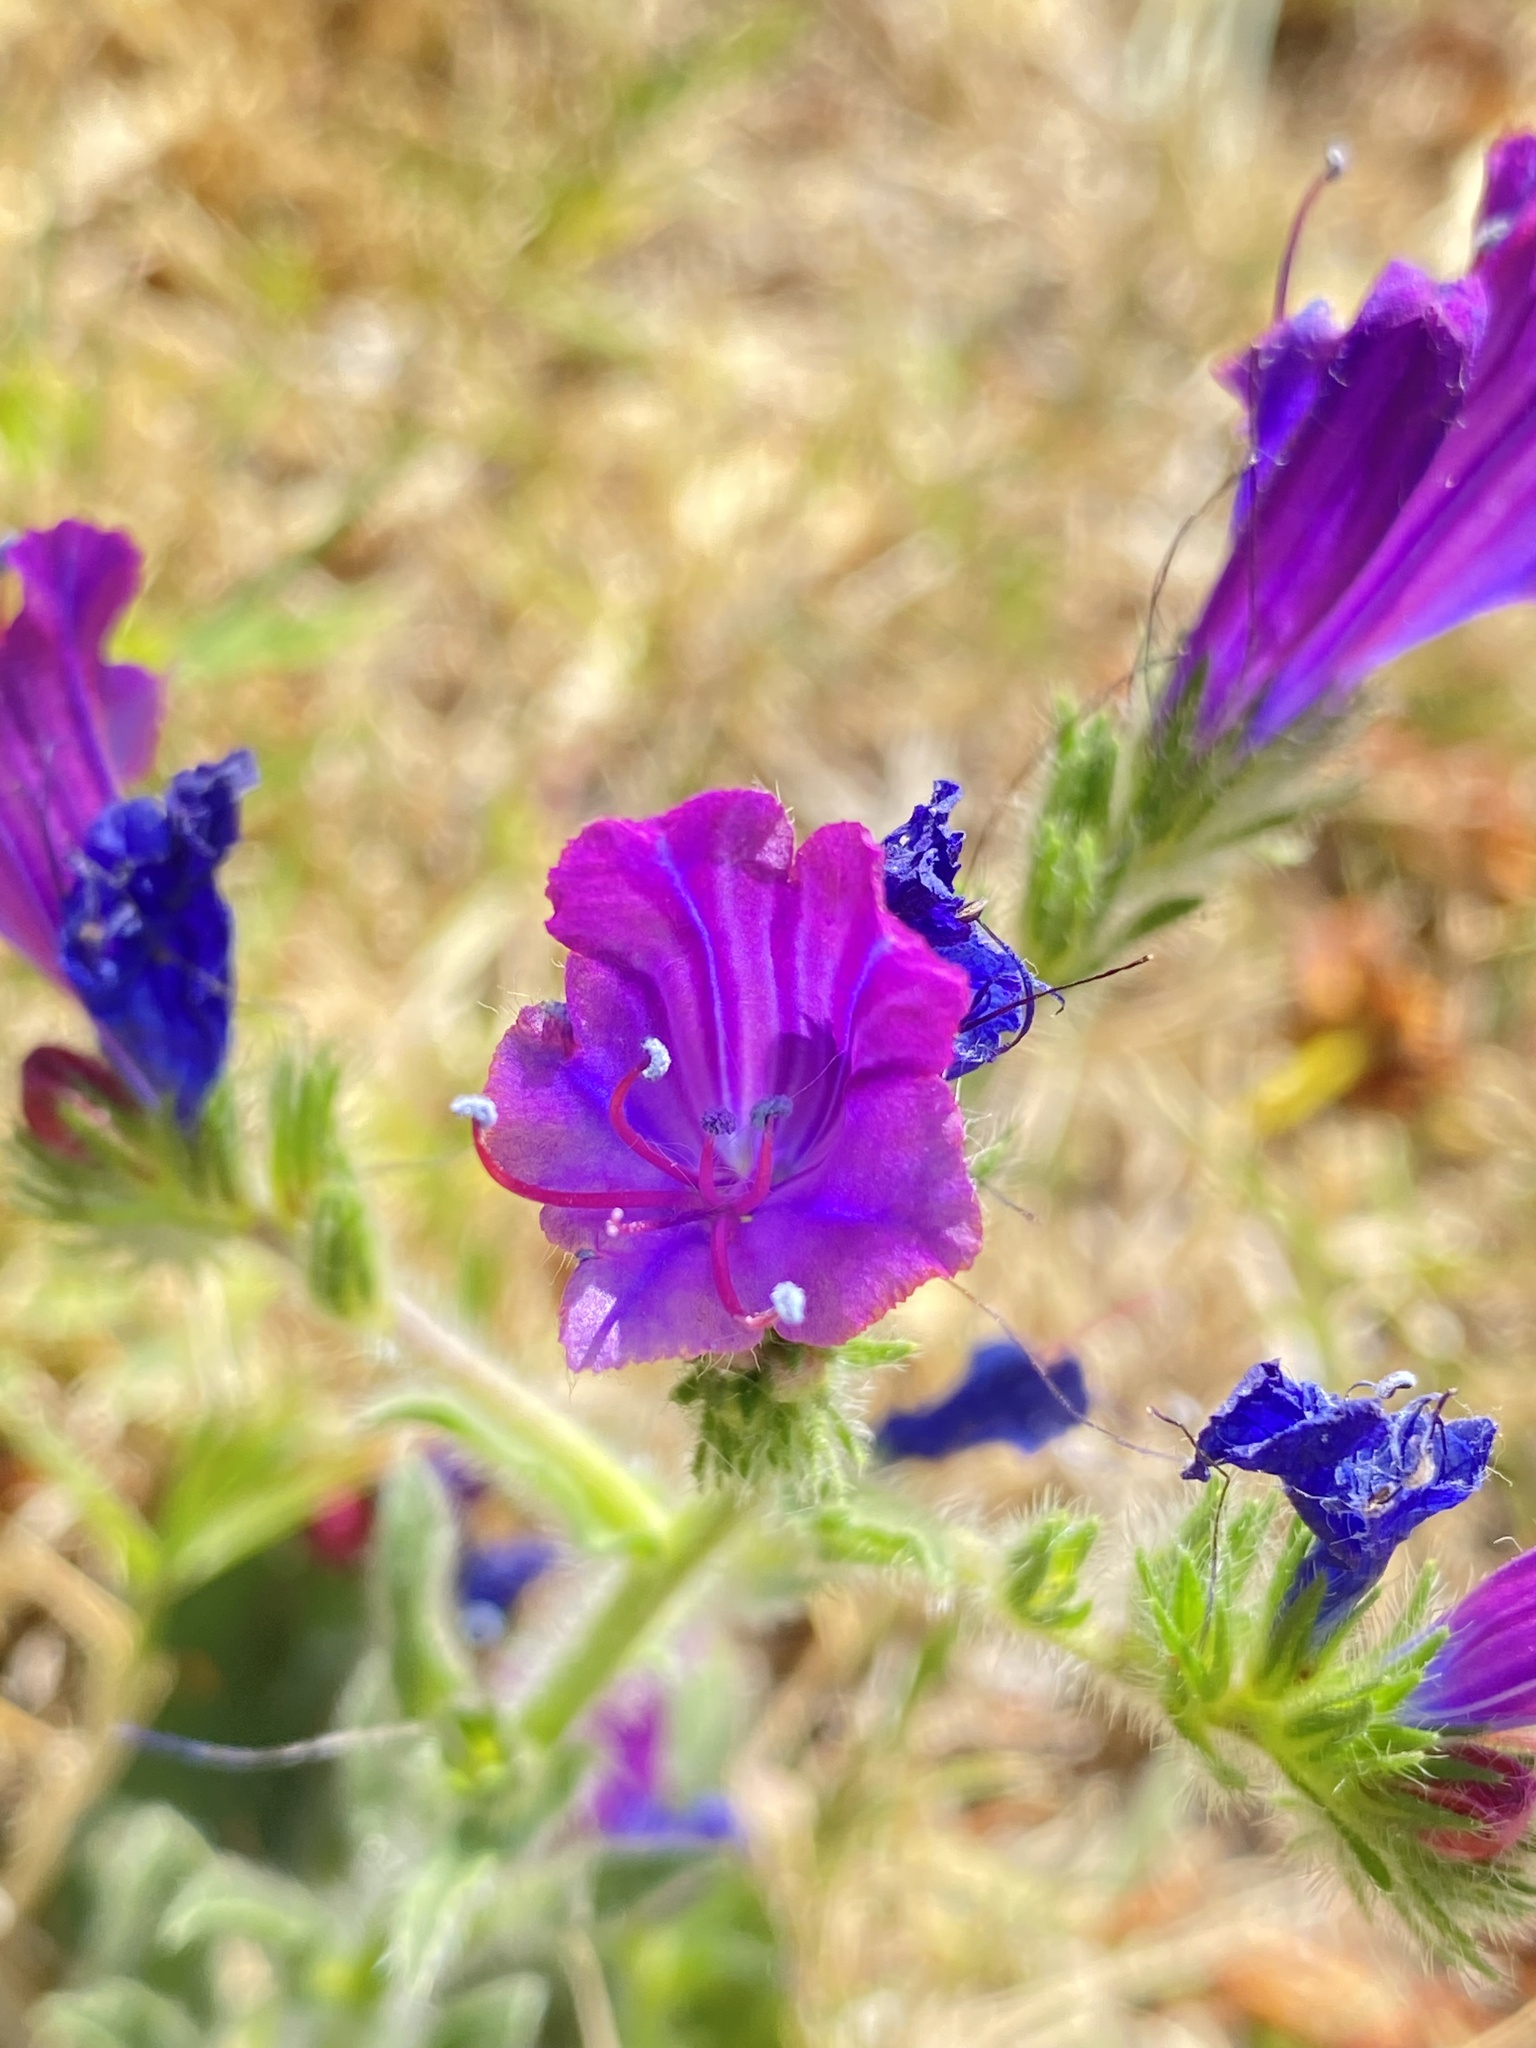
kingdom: Plantae
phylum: Tracheophyta
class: Magnoliopsida
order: Boraginales
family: Boraginaceae
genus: Echium
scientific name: Echium plantagineum
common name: Purple viper's-bugloss
